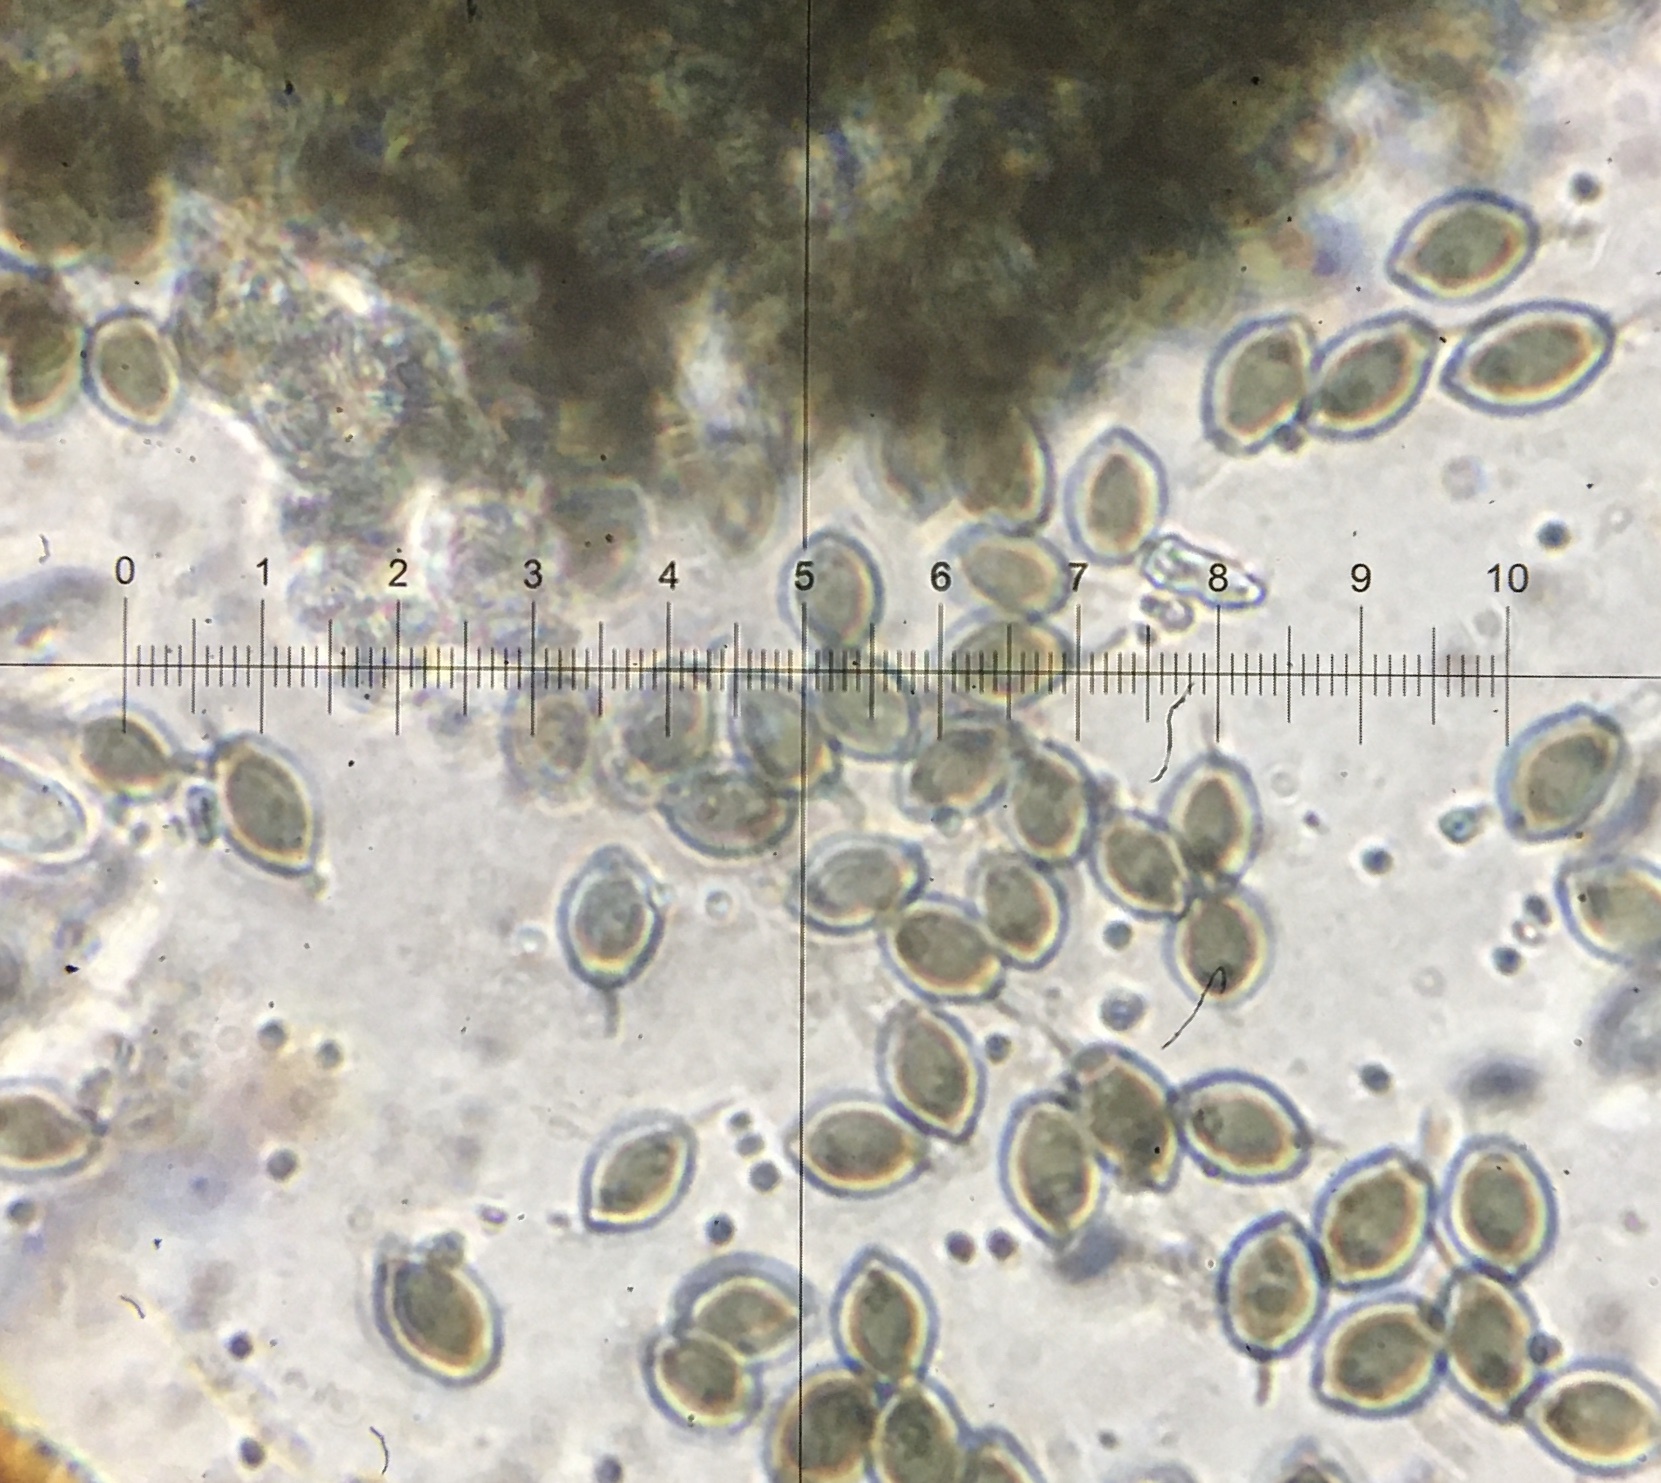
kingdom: Fungi
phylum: Ascomycota
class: Sordariomycetes
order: Sordariales
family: Lasiosphaeriaceae
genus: Zopfiella
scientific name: Zopfiella erostrata
